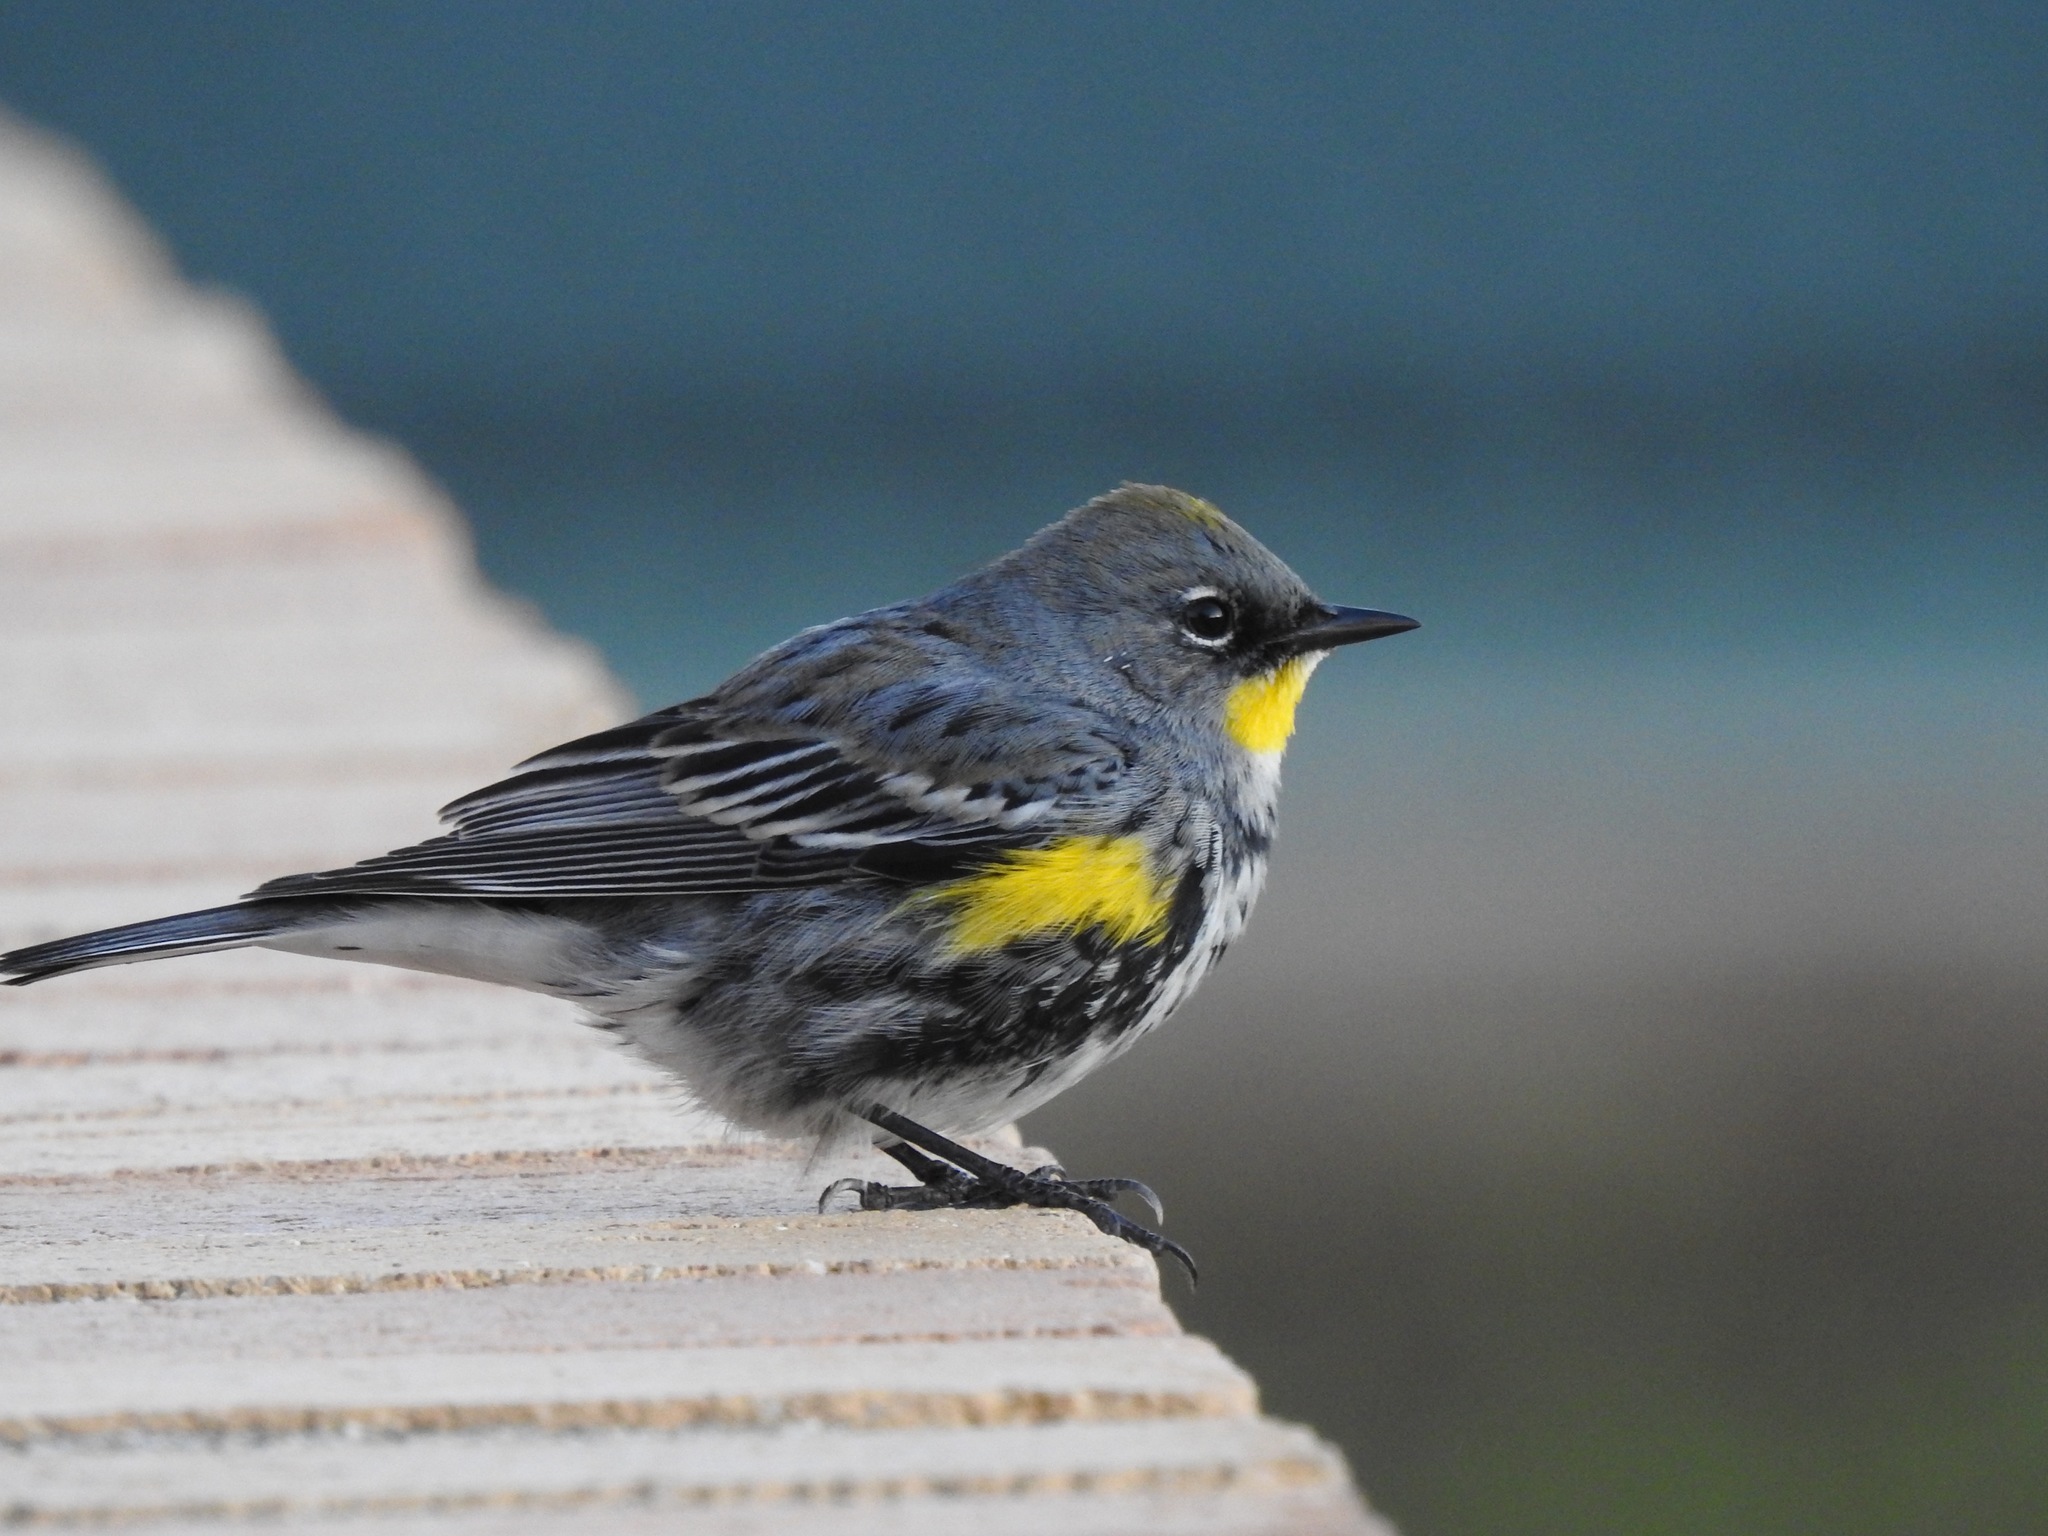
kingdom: Animalia
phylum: Chordata
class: Aves
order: Passeriformes
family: Parulidae
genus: Setophaga
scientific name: Setophaga auduboni
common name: Audubon's warbler
